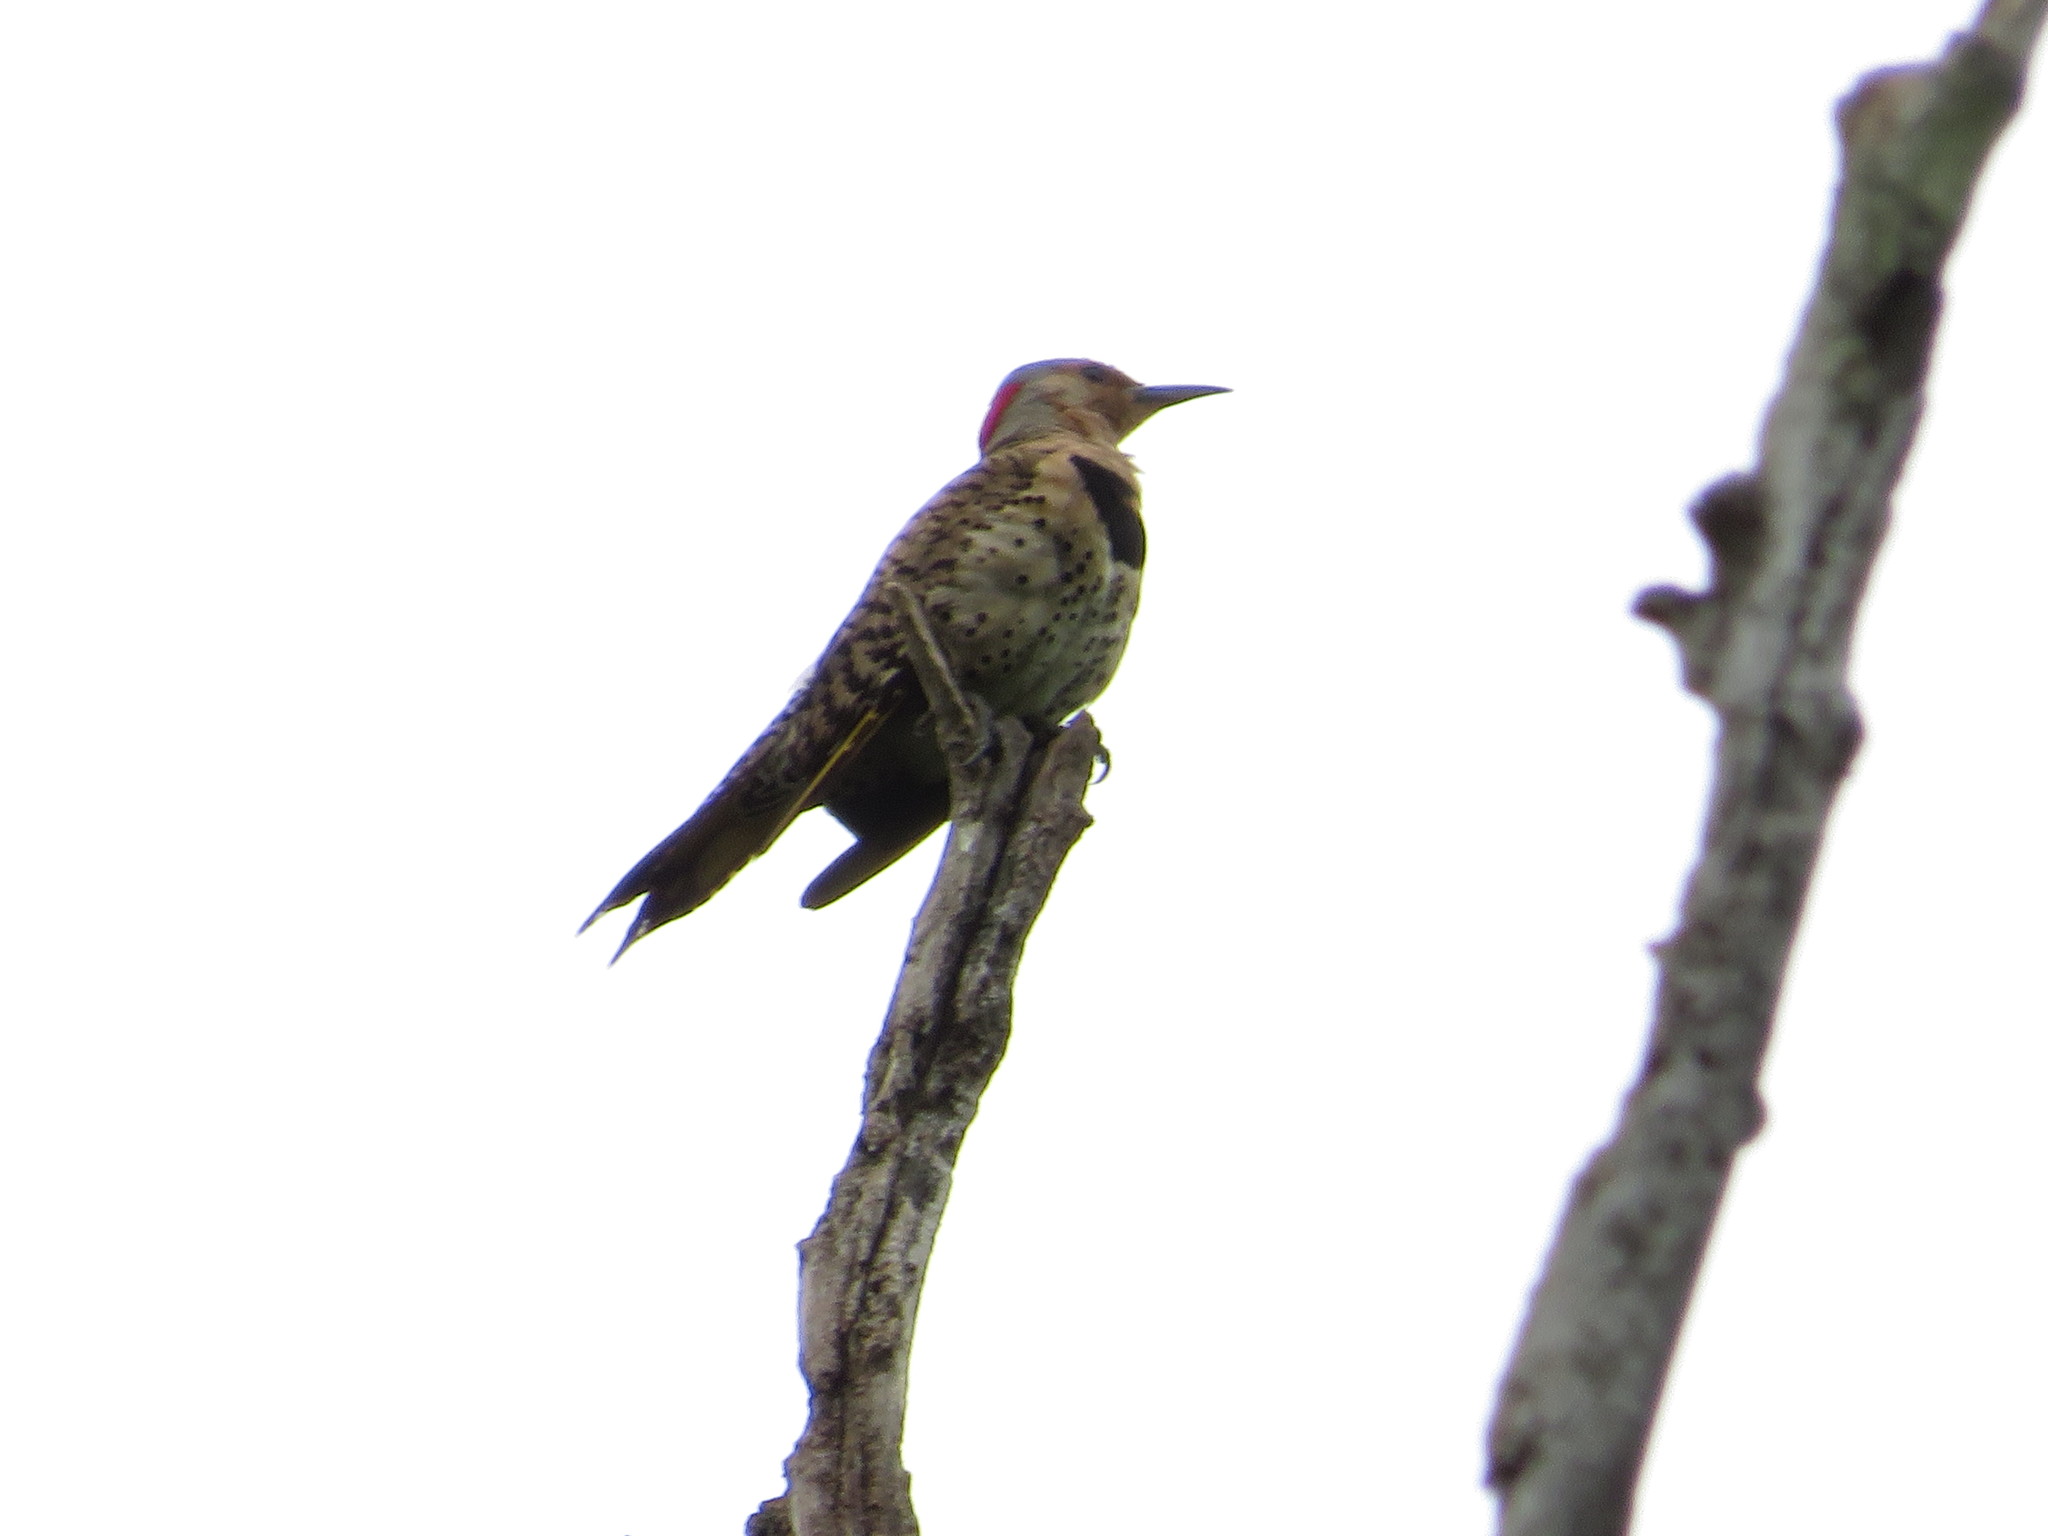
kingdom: Animalia
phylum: Chordata
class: Aves
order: Piciformes
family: Picidae
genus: Colaptes
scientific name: Colaptes auratus
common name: Northern flicker
